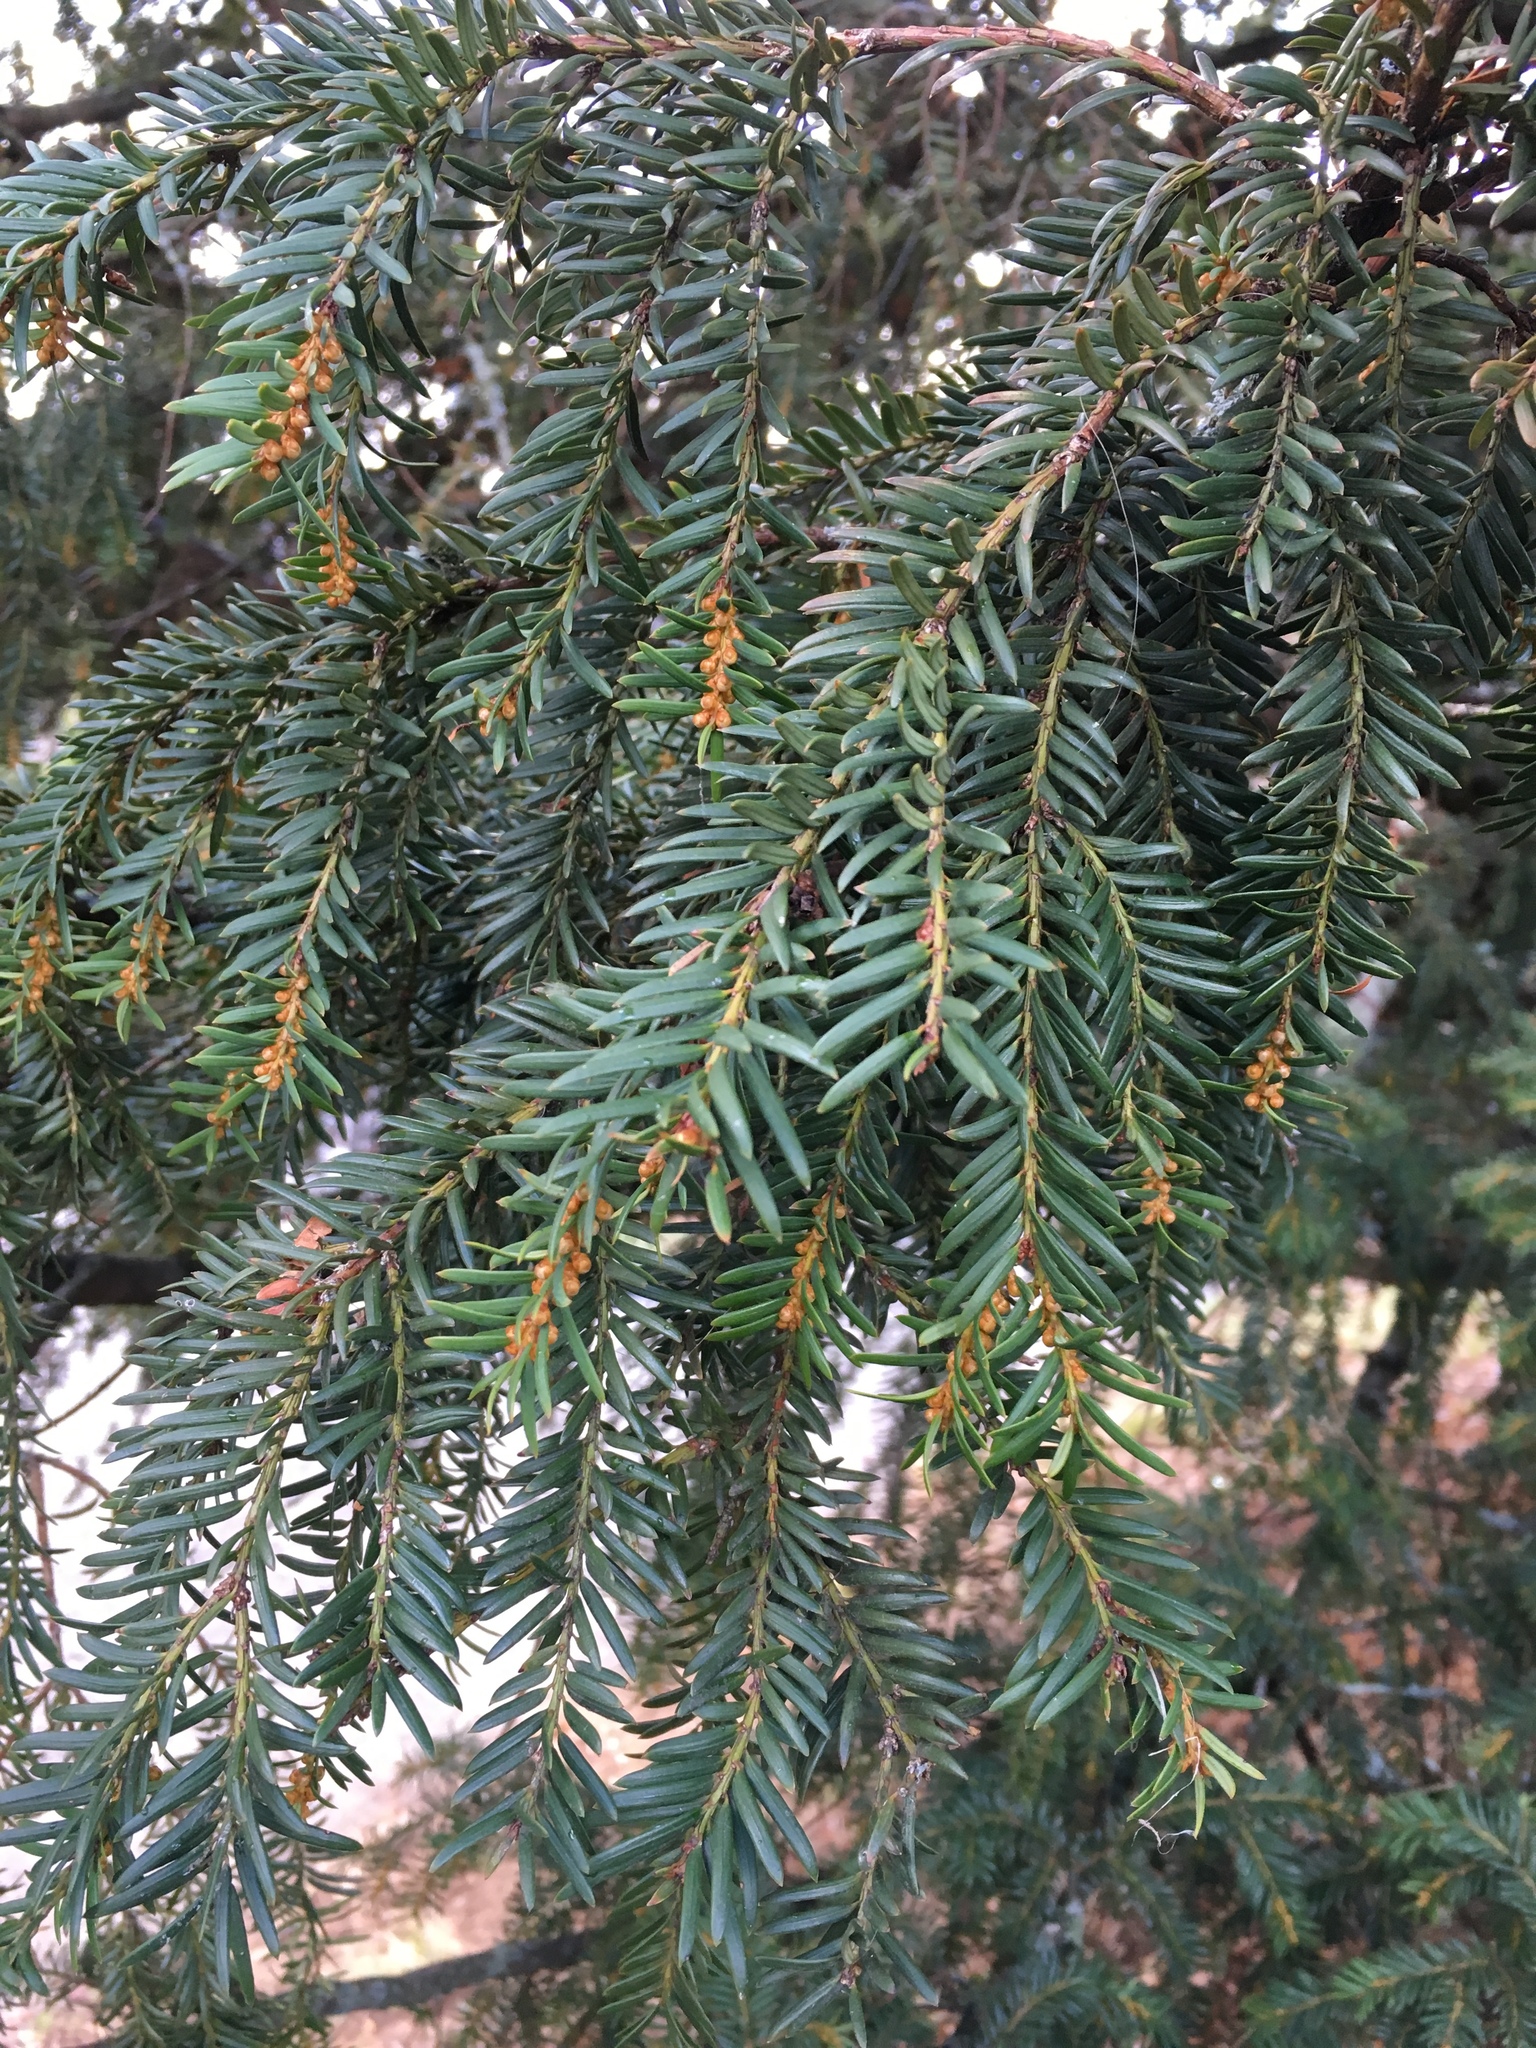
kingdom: Plantae
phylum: Tracheophyta
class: Pinopsida
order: Pinales
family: Taxaceae
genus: Taxus
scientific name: Taxus baccata
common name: Yew
